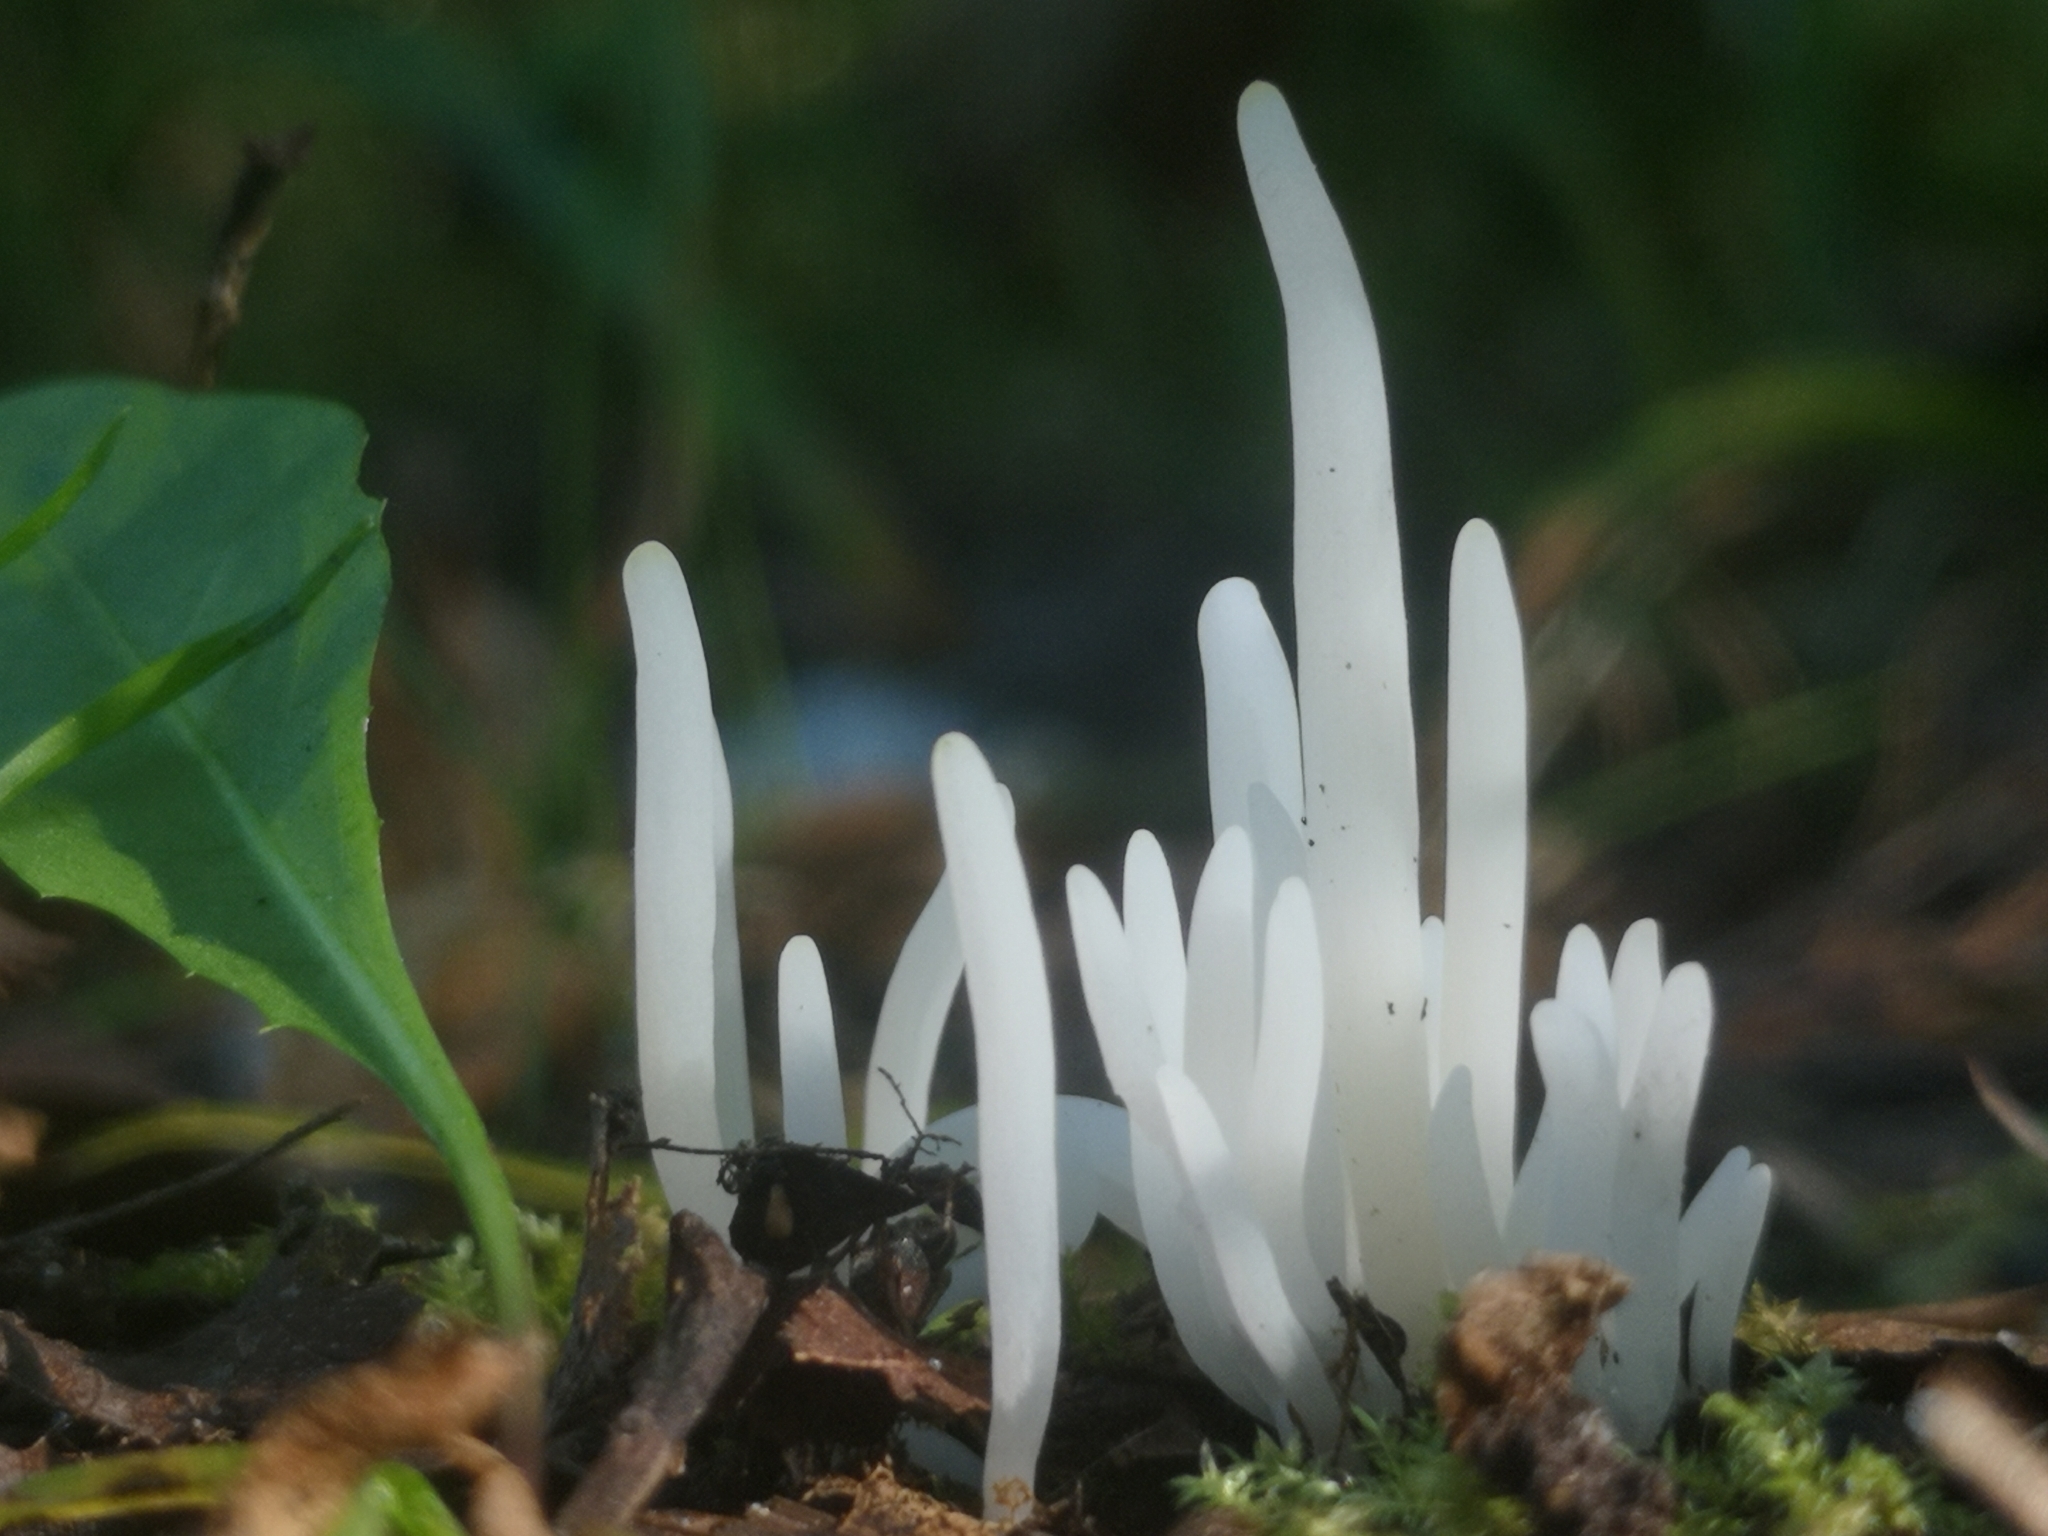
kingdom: Fungi
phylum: Basidiomycota
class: Agaricomycetes
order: Agaricales
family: Clavariaceae
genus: Clavaria
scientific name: Clavaria fragilis
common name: White spindles
